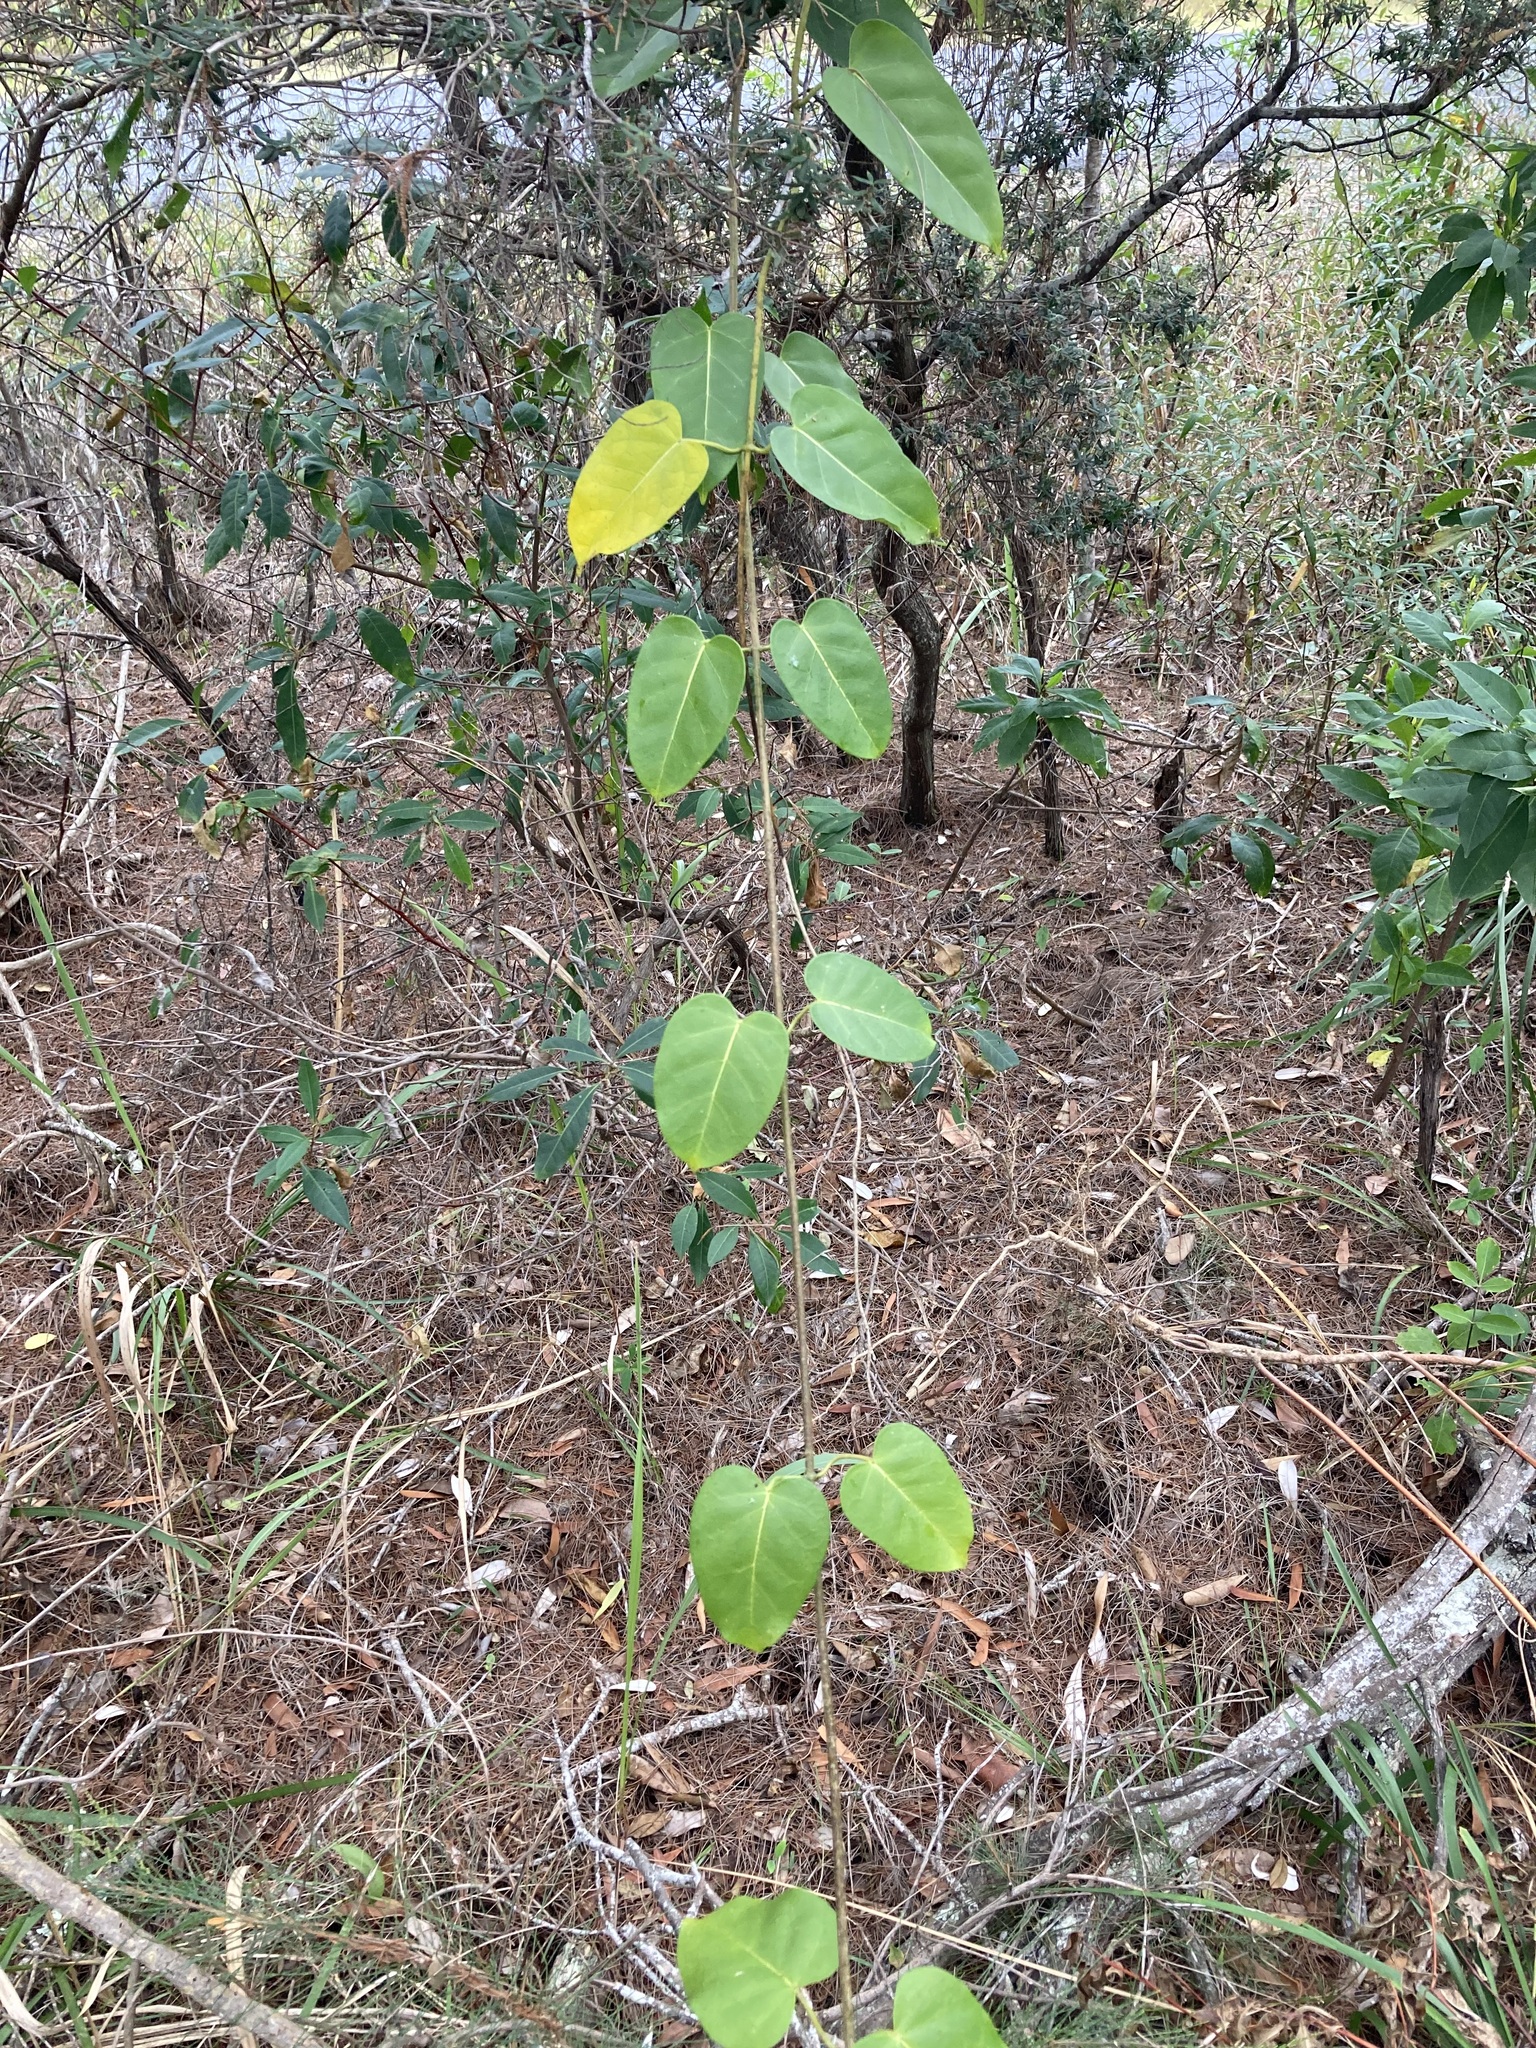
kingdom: Plantae
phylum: Tracheophyta
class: Magnoliopsida
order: Gentianales
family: Apocynaceae
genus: Leichhardtia
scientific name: Leichhardtia rostrata
